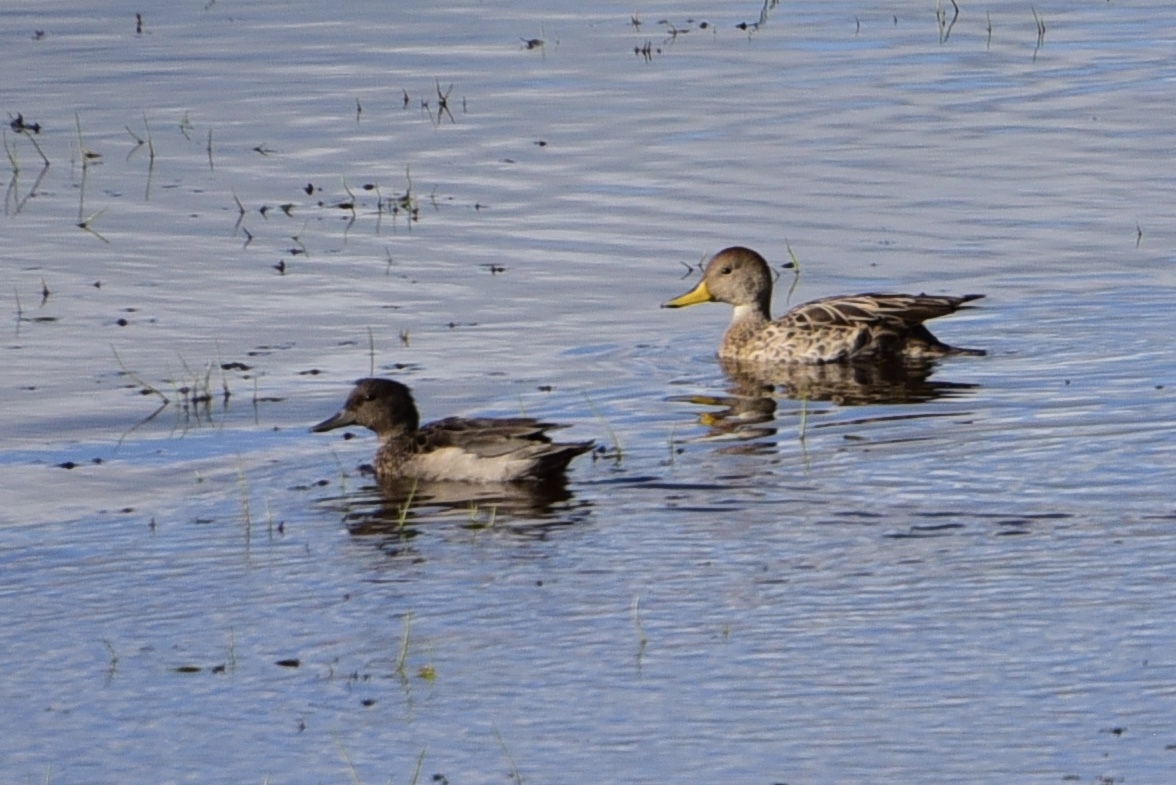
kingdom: Animalia
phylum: Chordata
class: Aves
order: Anseriformes
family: Anatidae
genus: Anas
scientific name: Anas georgica
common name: Yellow-billed pintail
